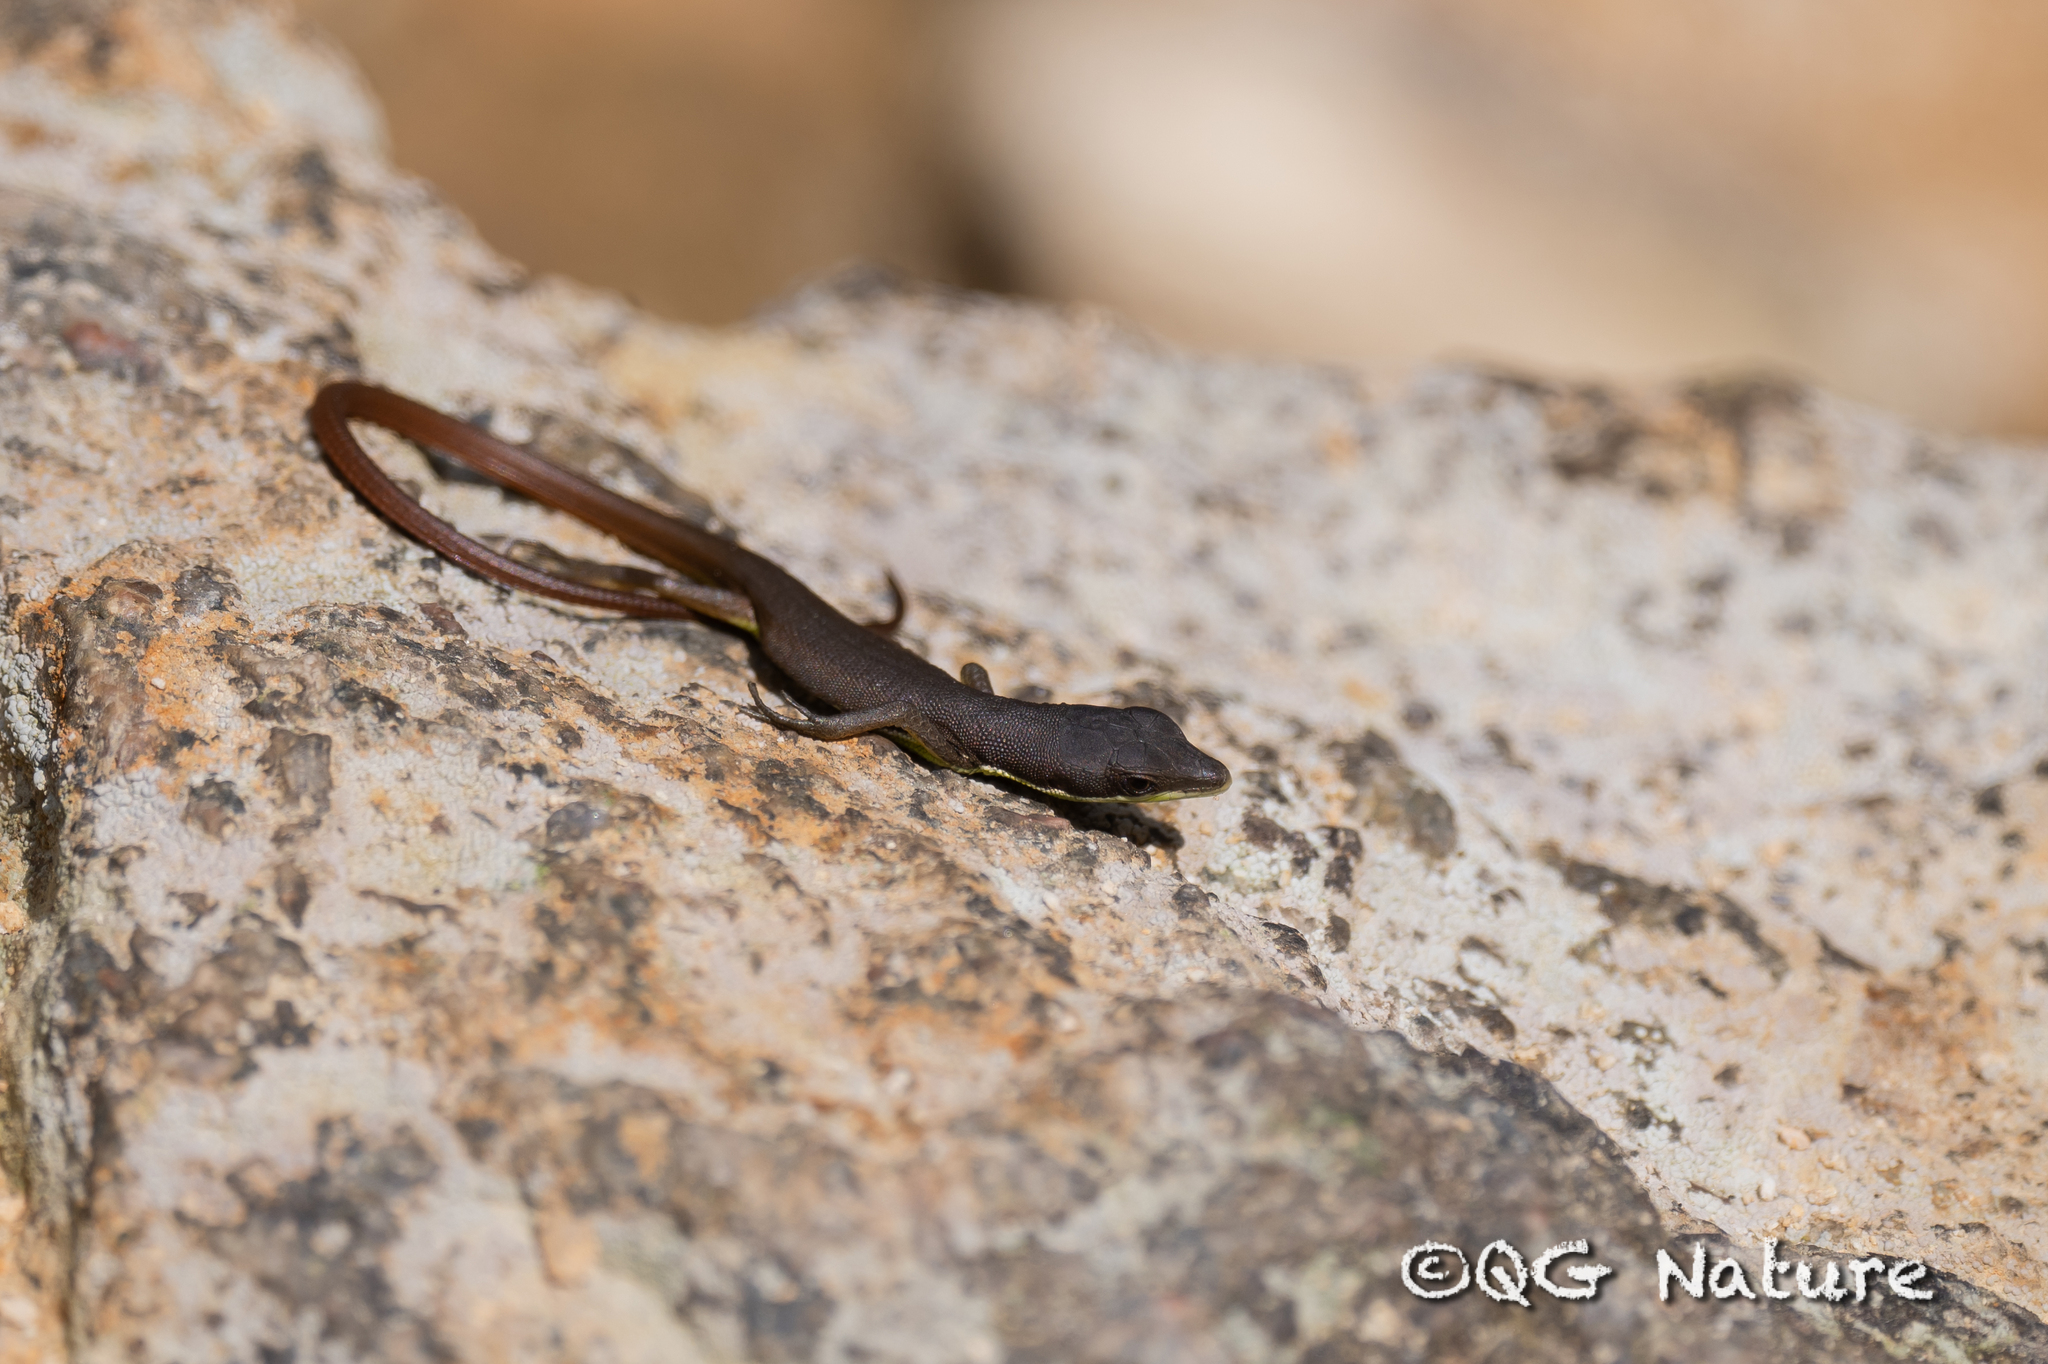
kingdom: Animalia
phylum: Chordata
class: Squamata
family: Lacertidae
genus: Takydromus
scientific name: Takydromus sylvaticus
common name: Chung-an ground lizard
